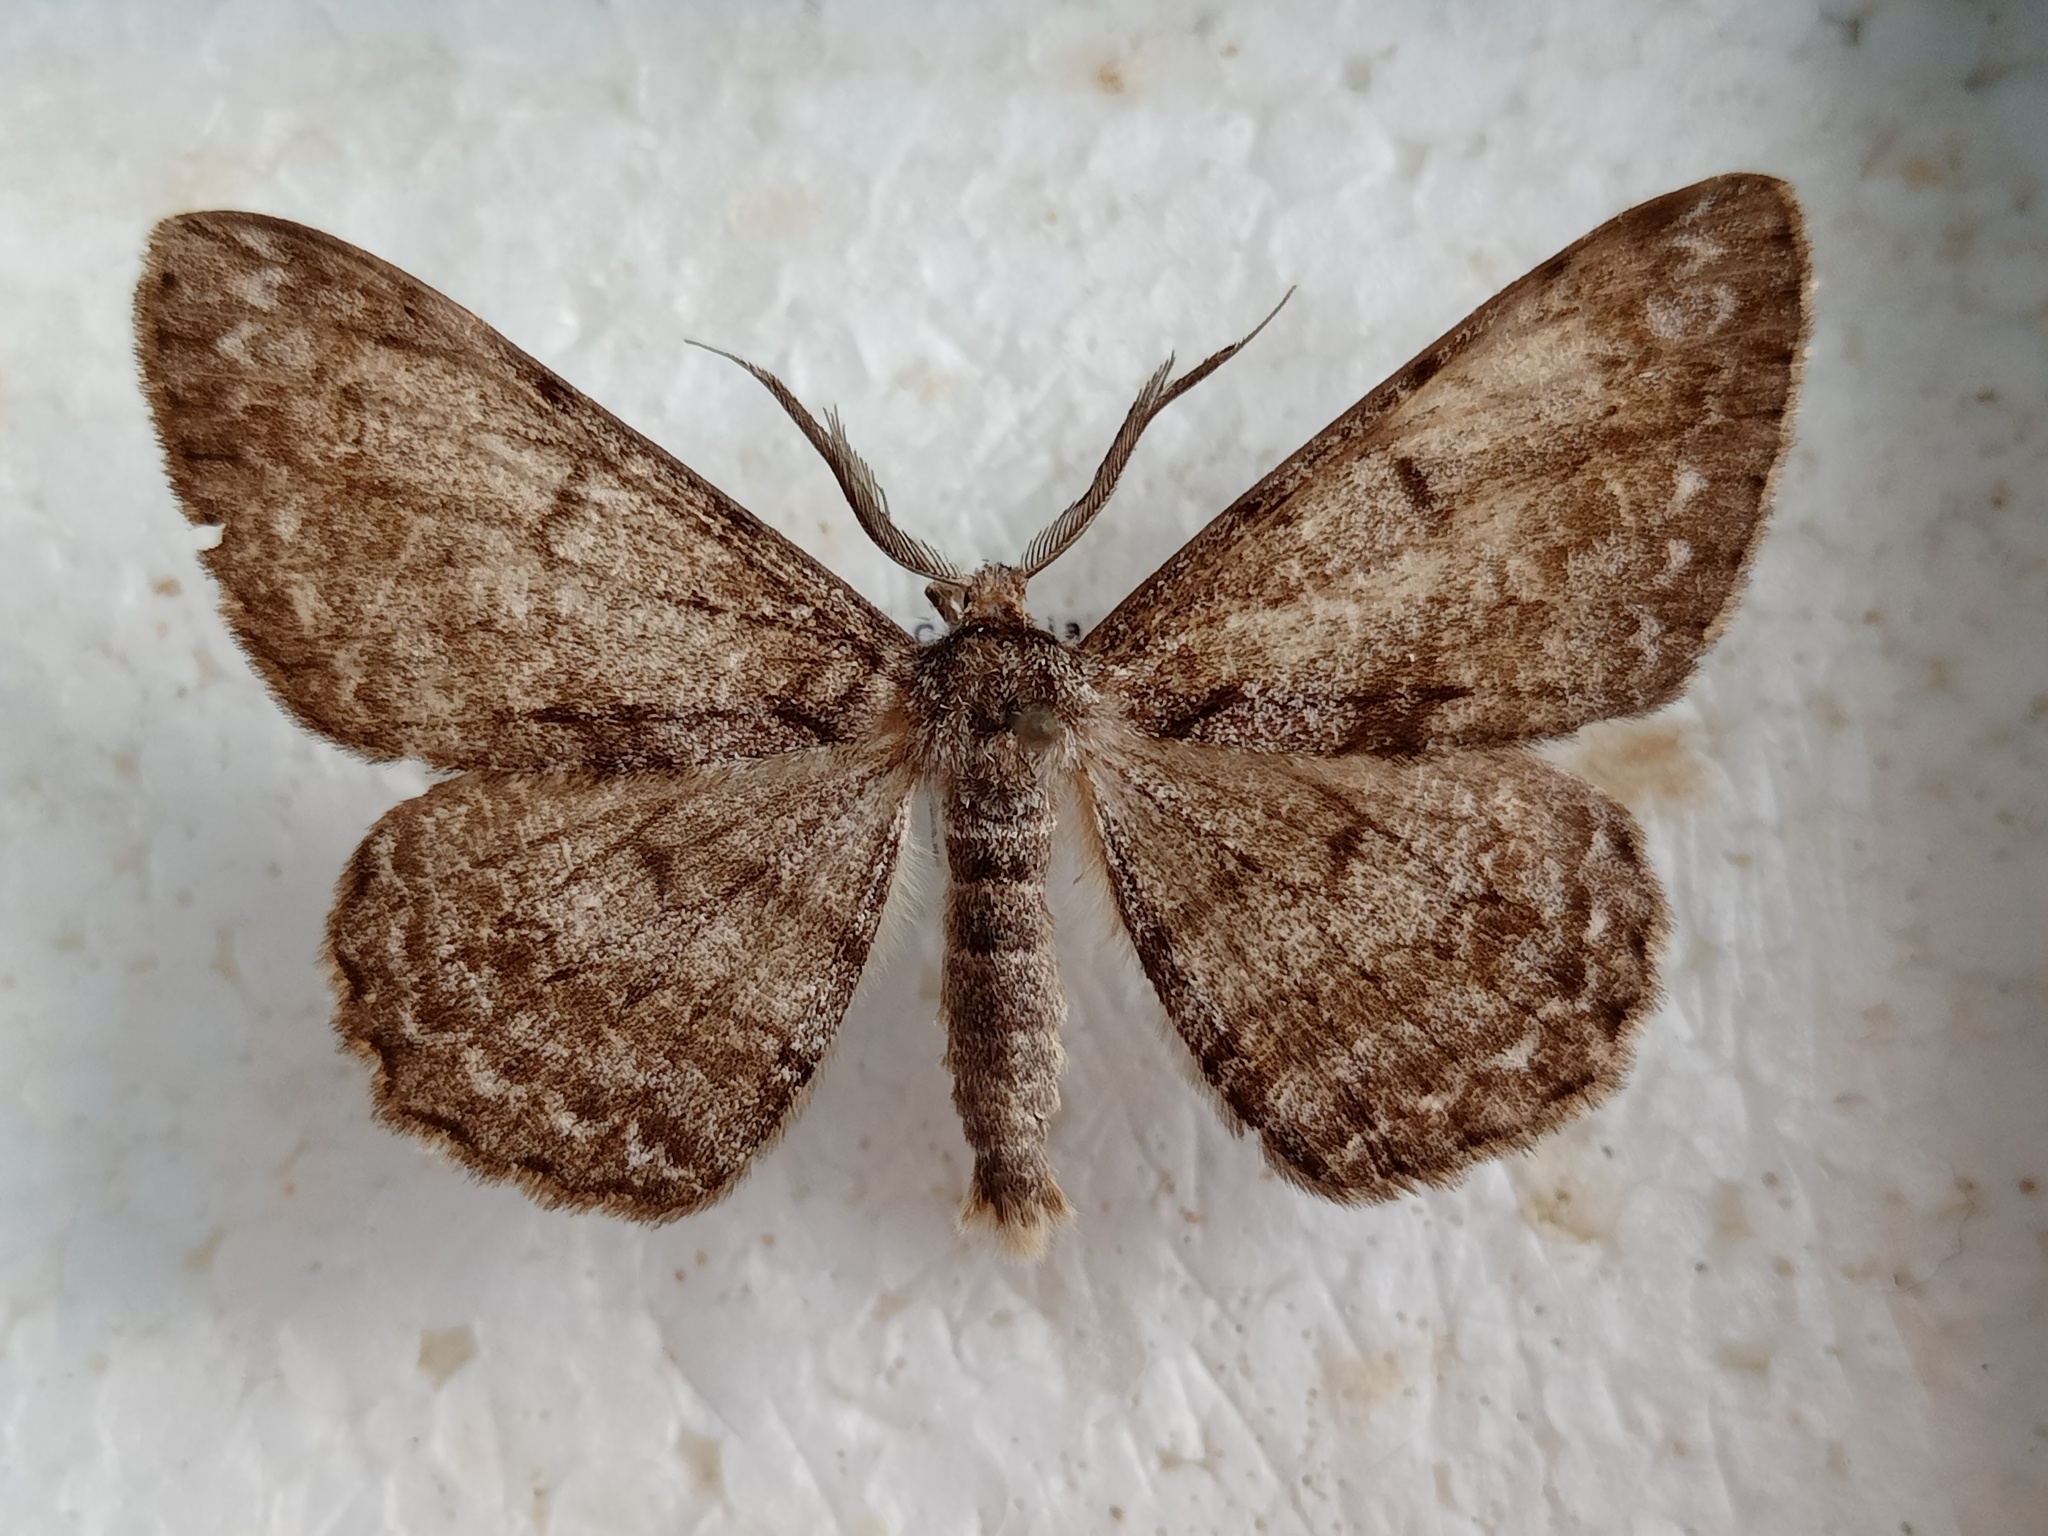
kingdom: Animalia
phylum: Arthropoda
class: Insecta
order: Lepidoptera
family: Geometridae
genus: Hypomecis
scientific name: Hypomecis roboraria
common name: Great oak beauty
